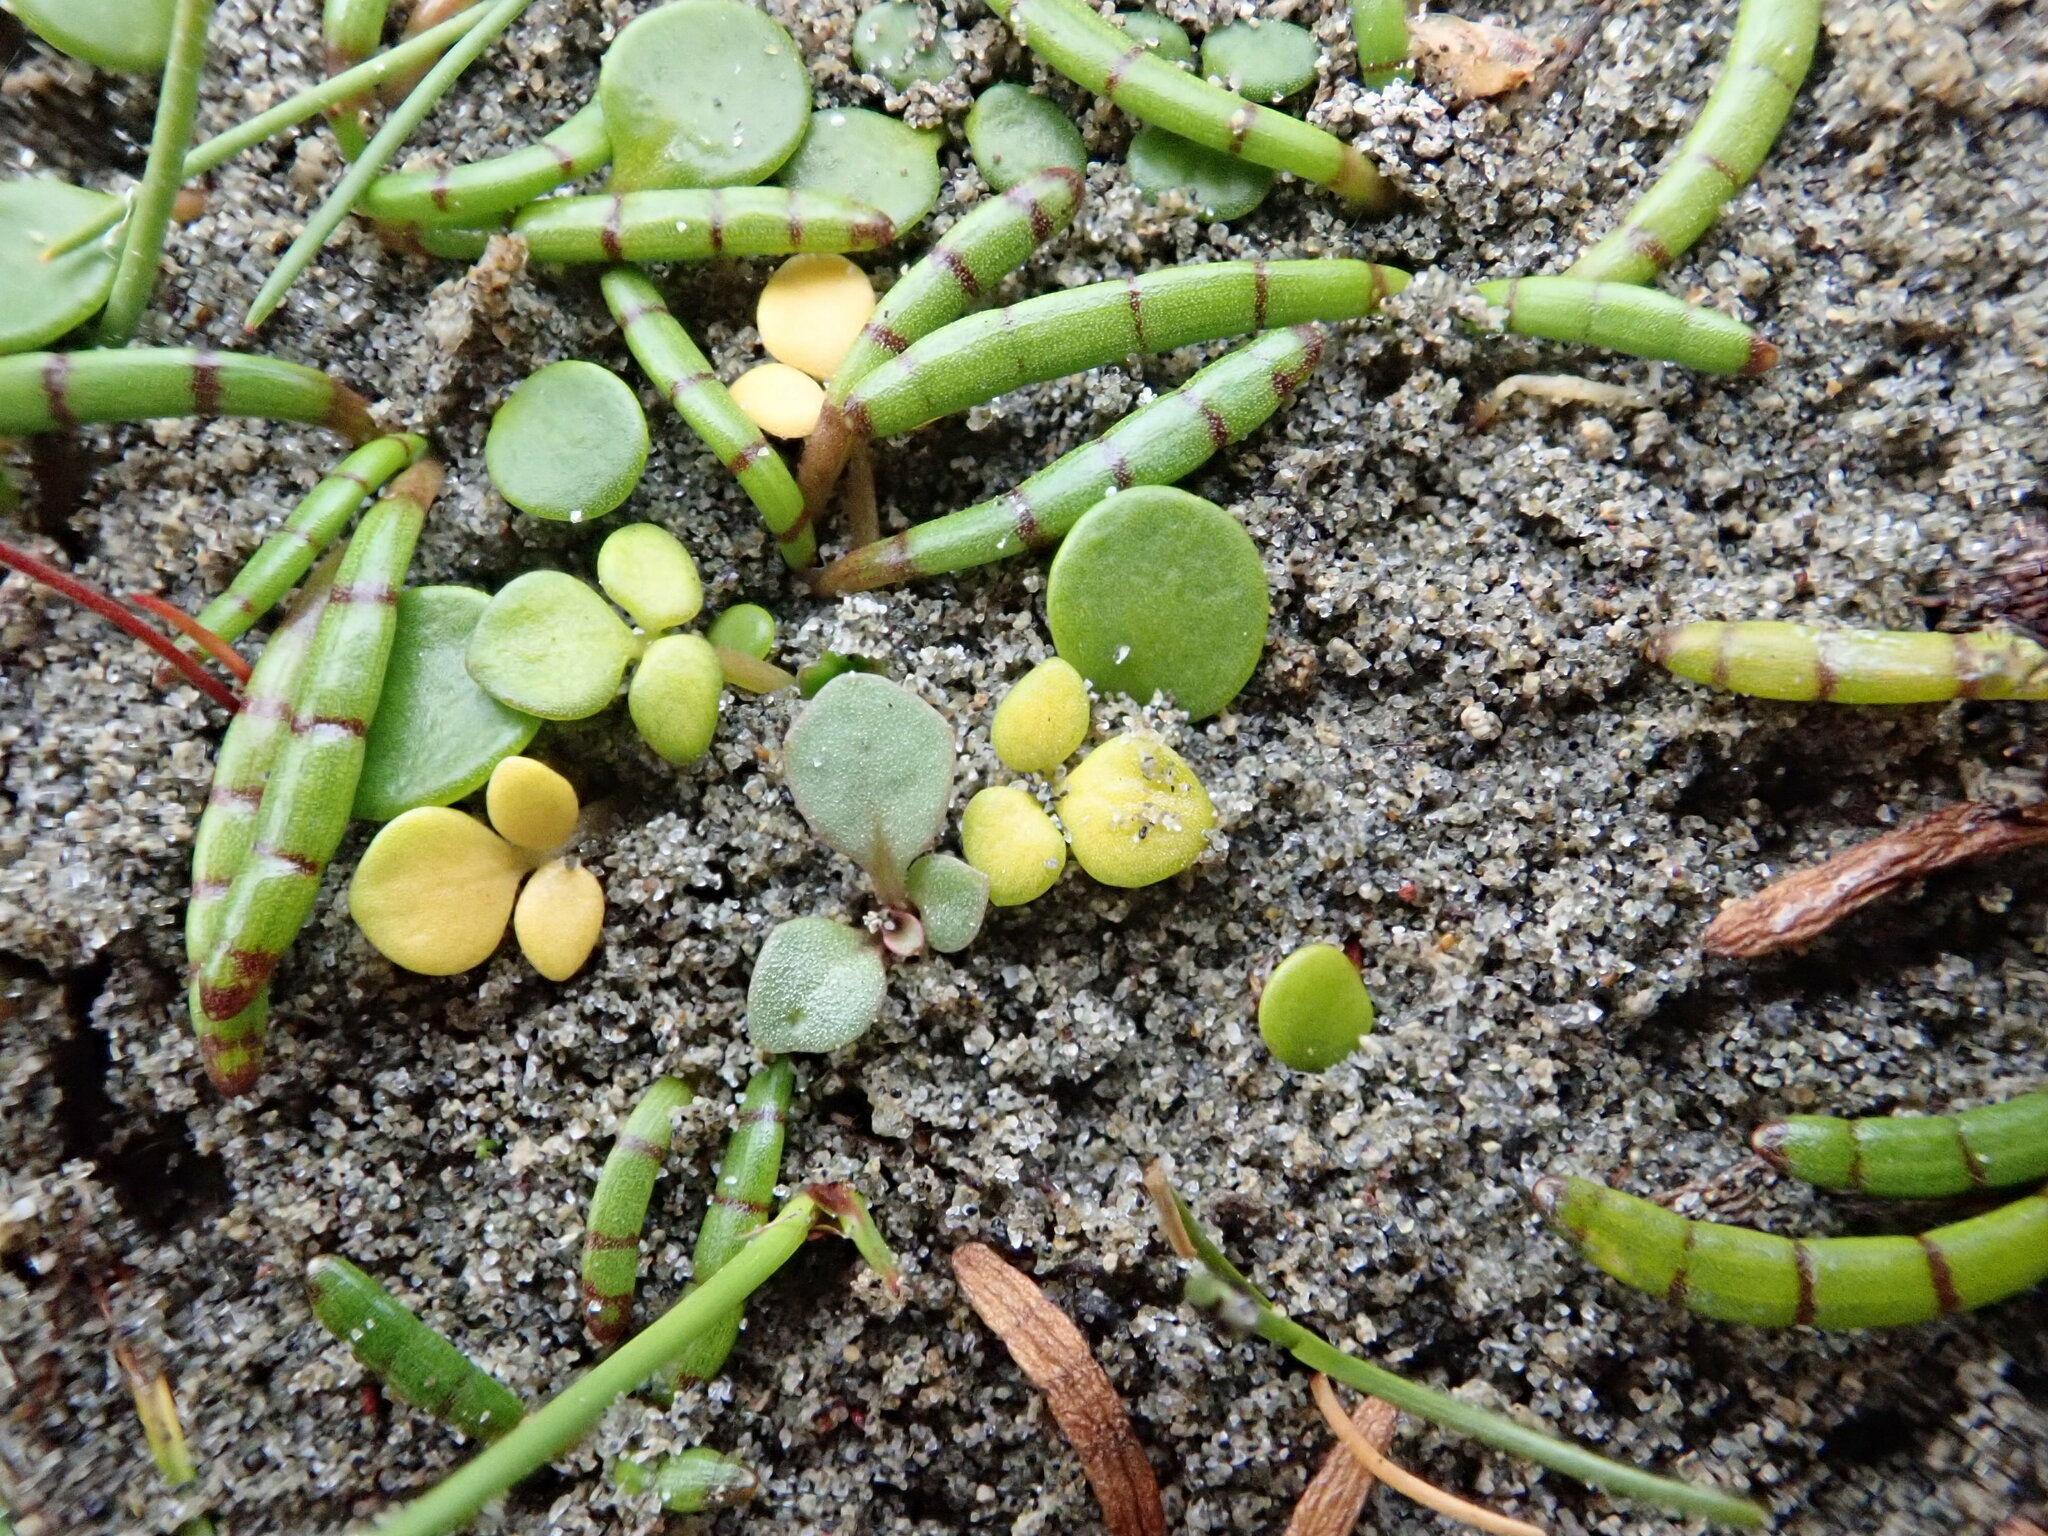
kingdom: Plantae
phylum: Tracheophyta
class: Magnoliopsida
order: Ranunculales
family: Ranunculaceae
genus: Ranunculus
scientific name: Ranunculus acaulis
